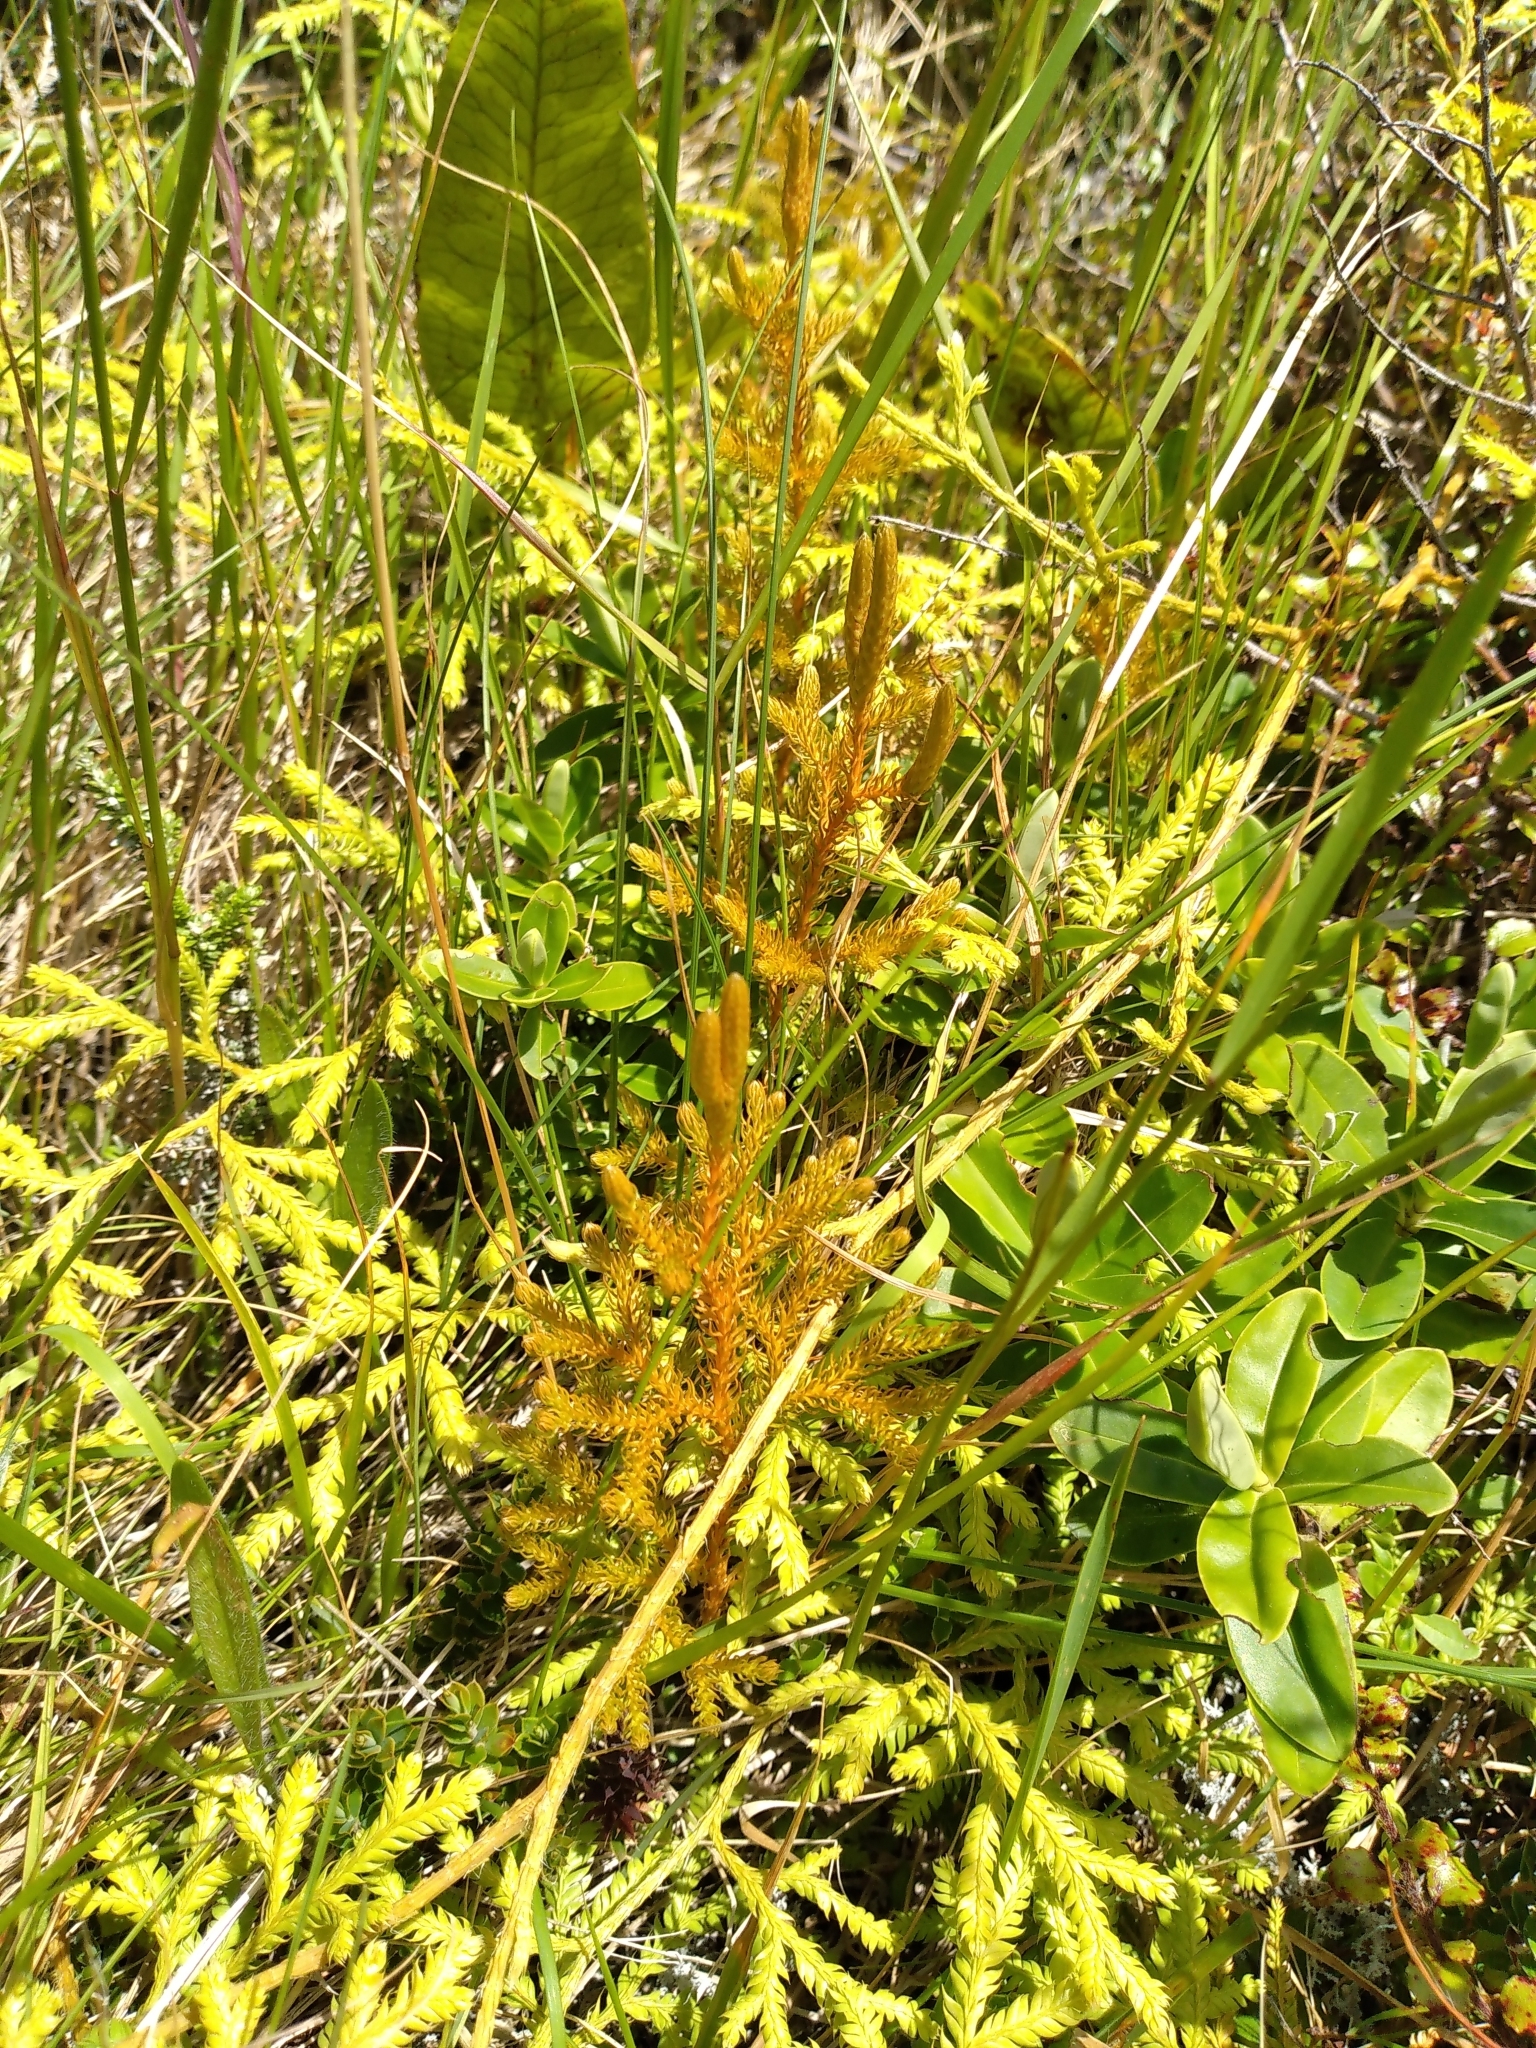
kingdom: Plantae
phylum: Tracheophyta
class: Lycopodiopsida
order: Lycopodiales
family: Lycopodiaceae
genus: Austrolycopodium
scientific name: Austrolycopodium fastigiatum
